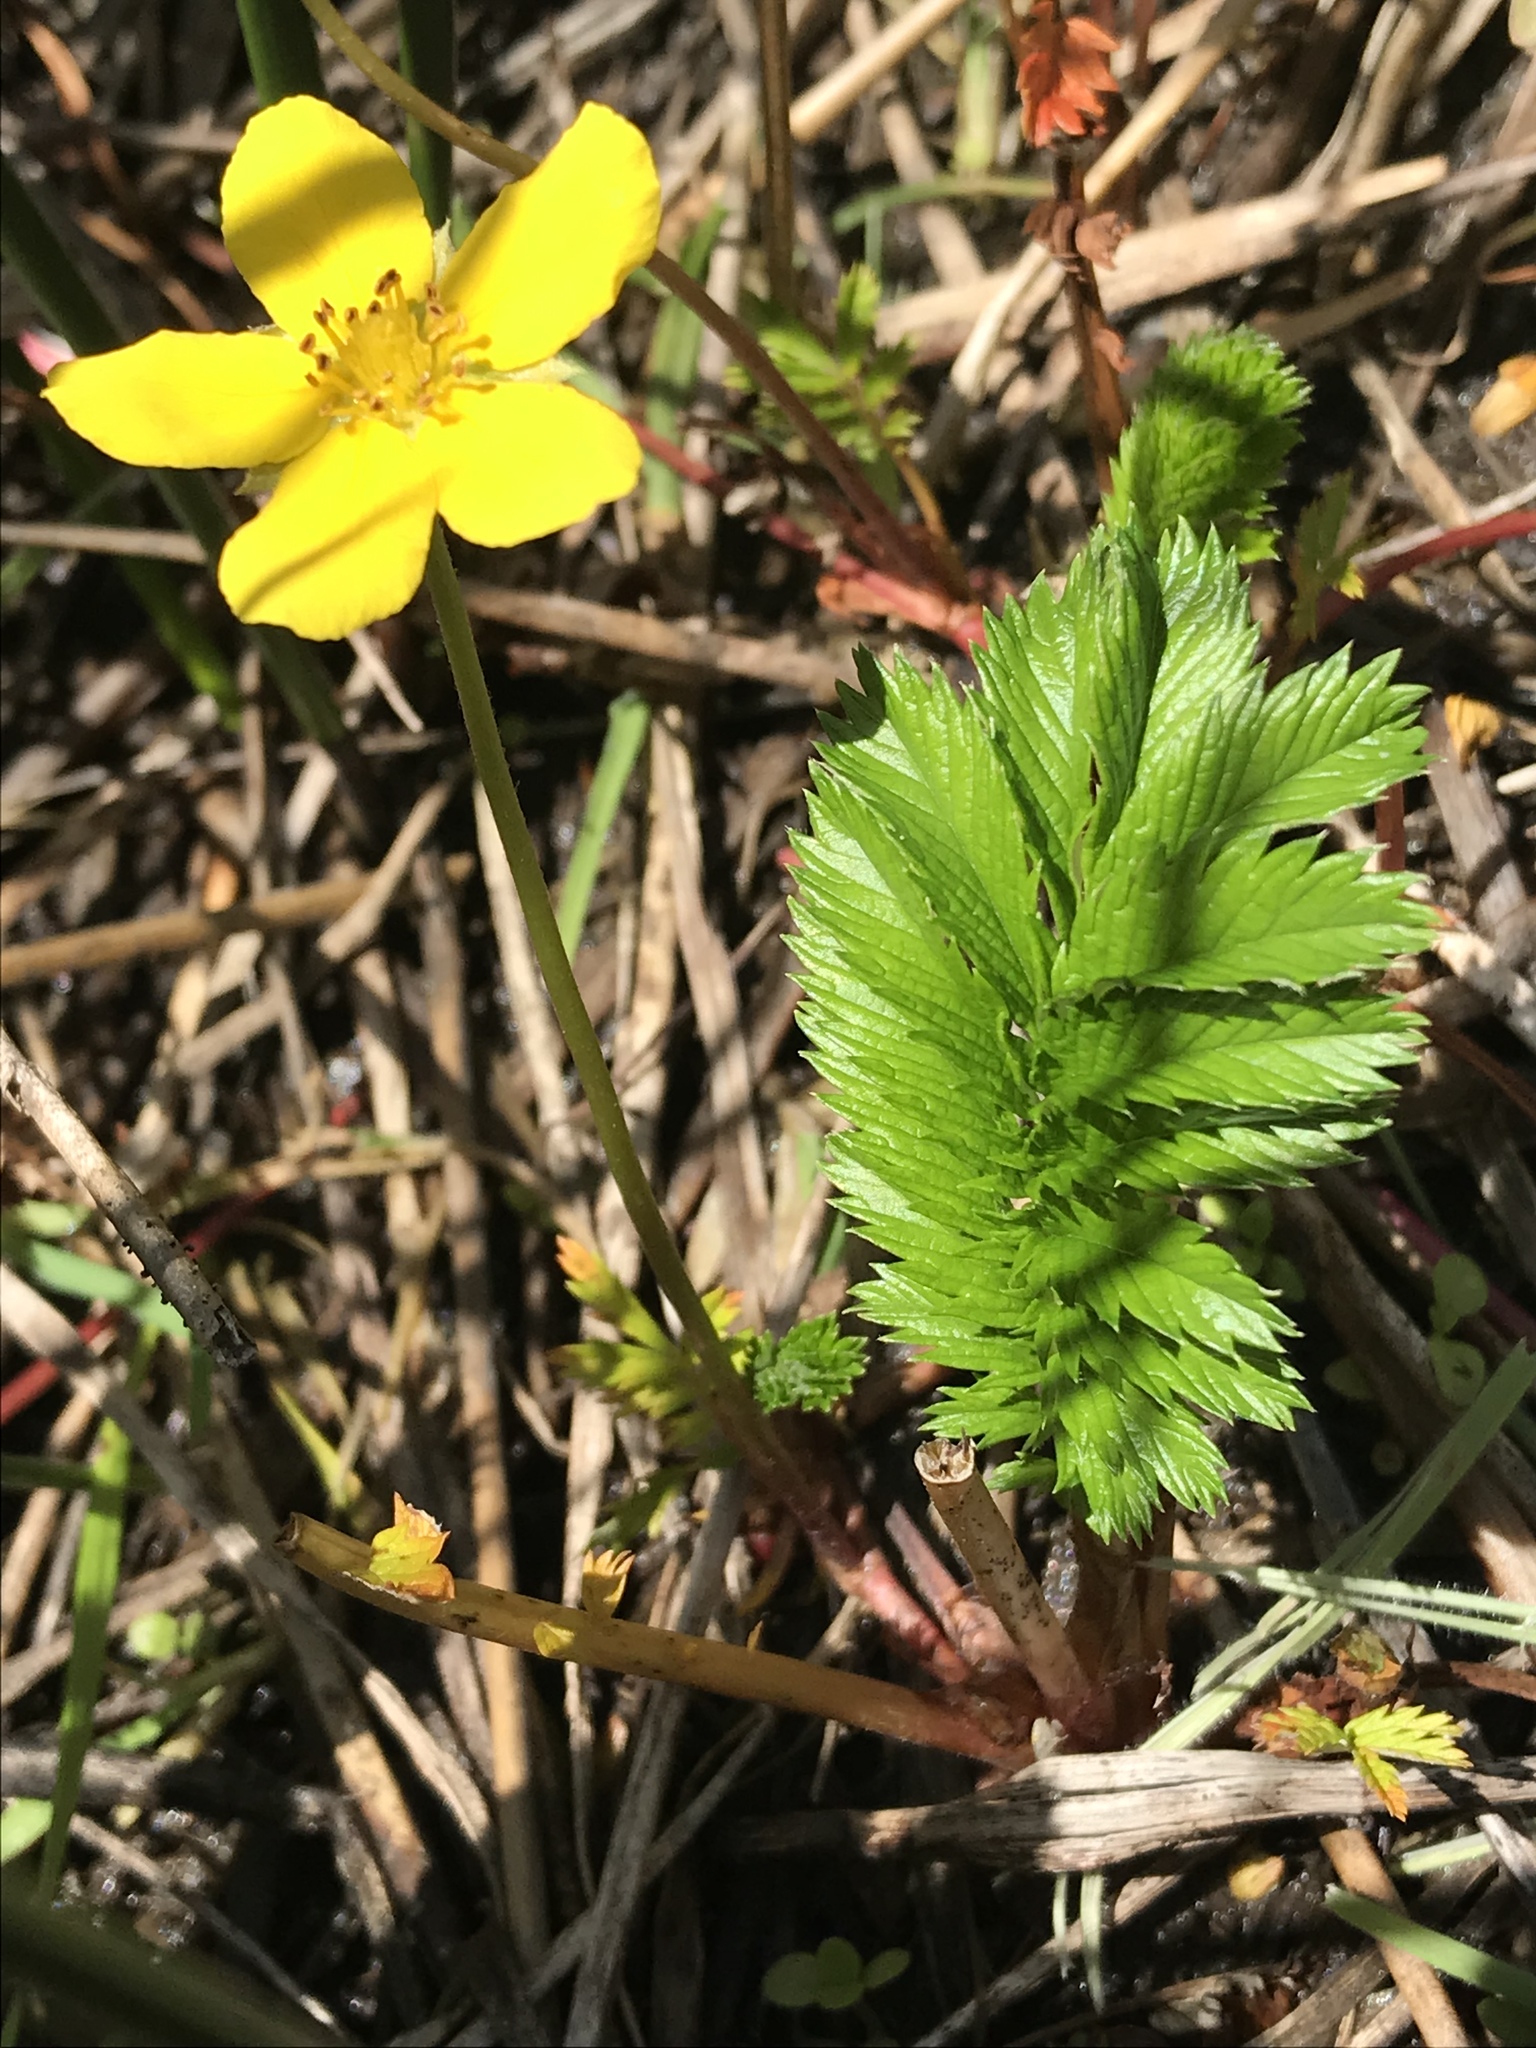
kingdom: Plantae
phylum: Tracheophyta
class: Magnoliopsida
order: Rosales
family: Rosaceae
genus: Argentina
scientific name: Argentina anserina
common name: Common silverweed
